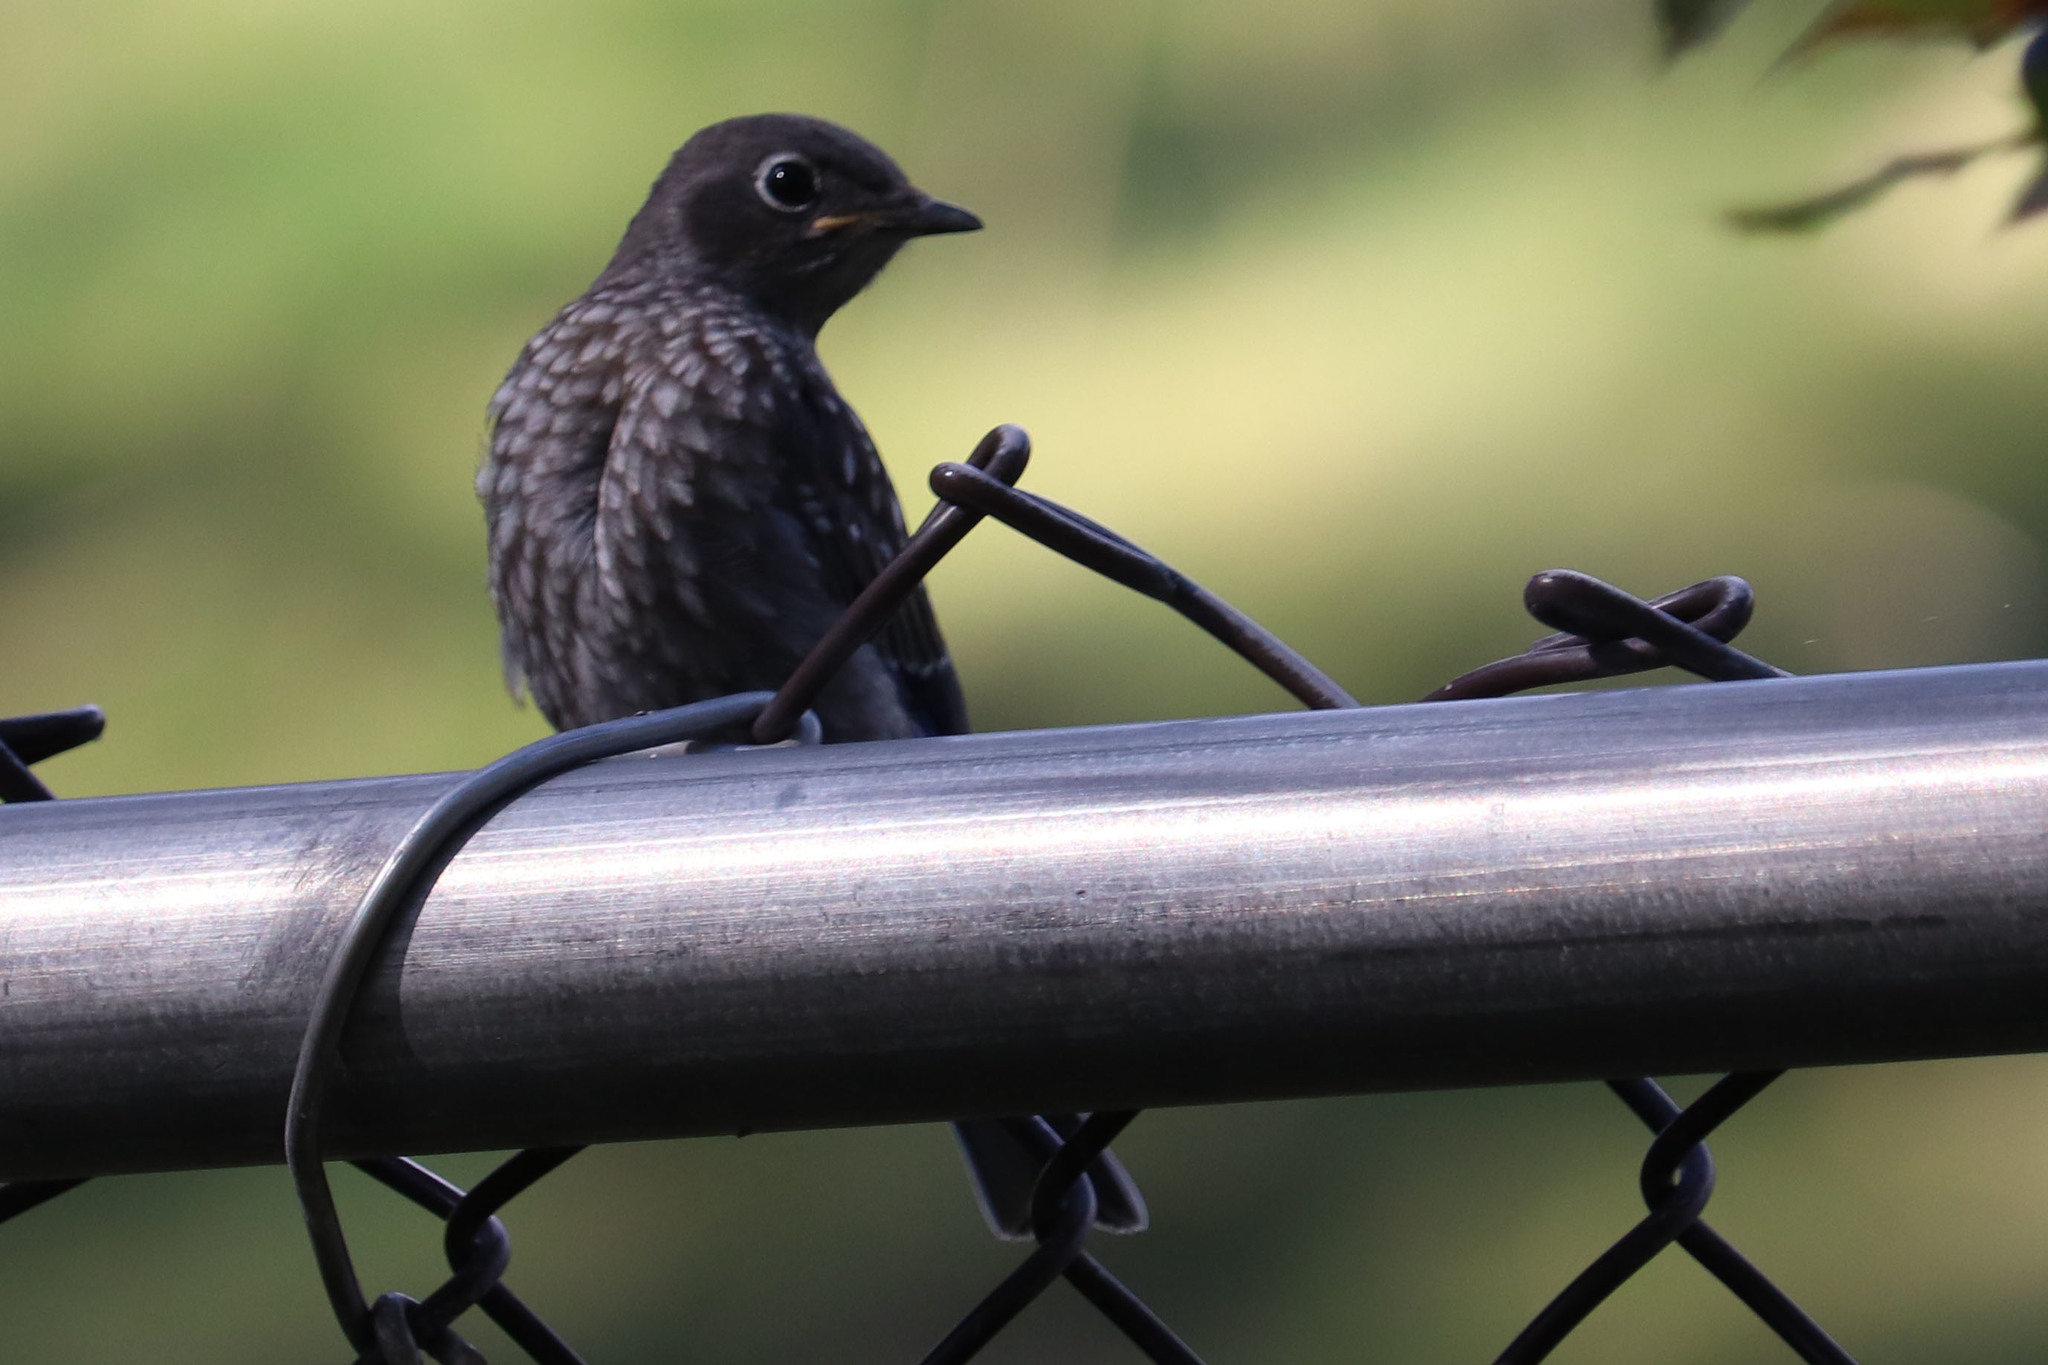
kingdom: Animalia
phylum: Chordata
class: Aves
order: Passeriformes
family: Turdidae
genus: Sialia
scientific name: Sialia mexicana
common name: Western bluebird
